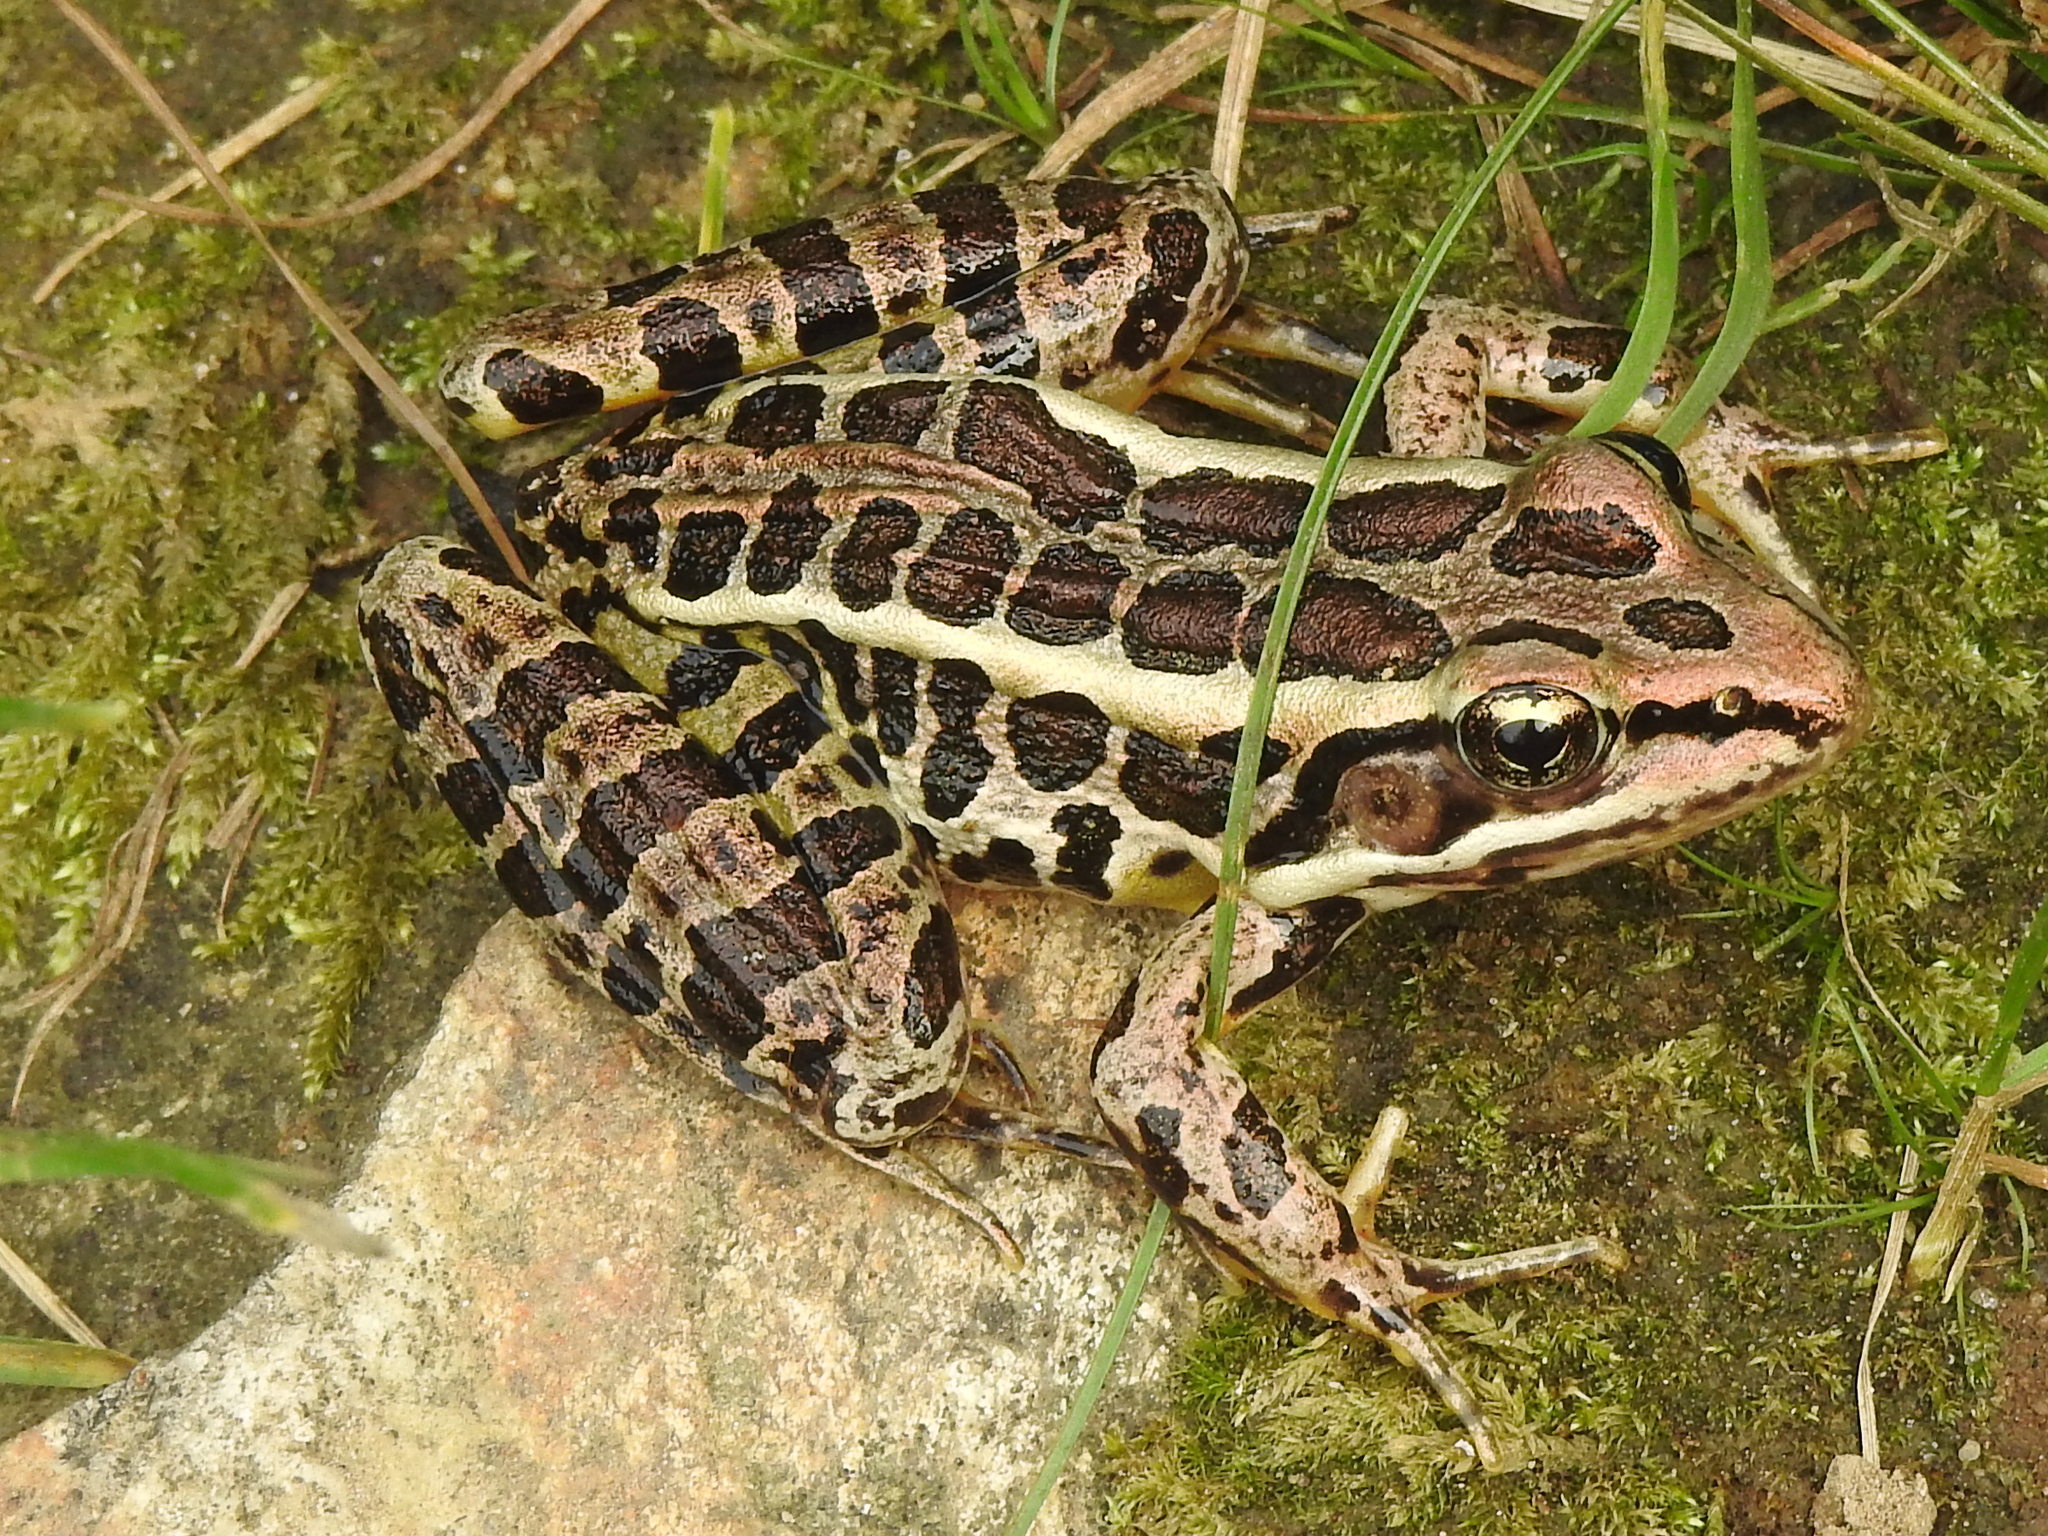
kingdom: Animalia
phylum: Chordata
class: Amphibia
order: Anura
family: Ranidae
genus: Lithobates
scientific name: Lithobates palustris
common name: Pickerel frog
